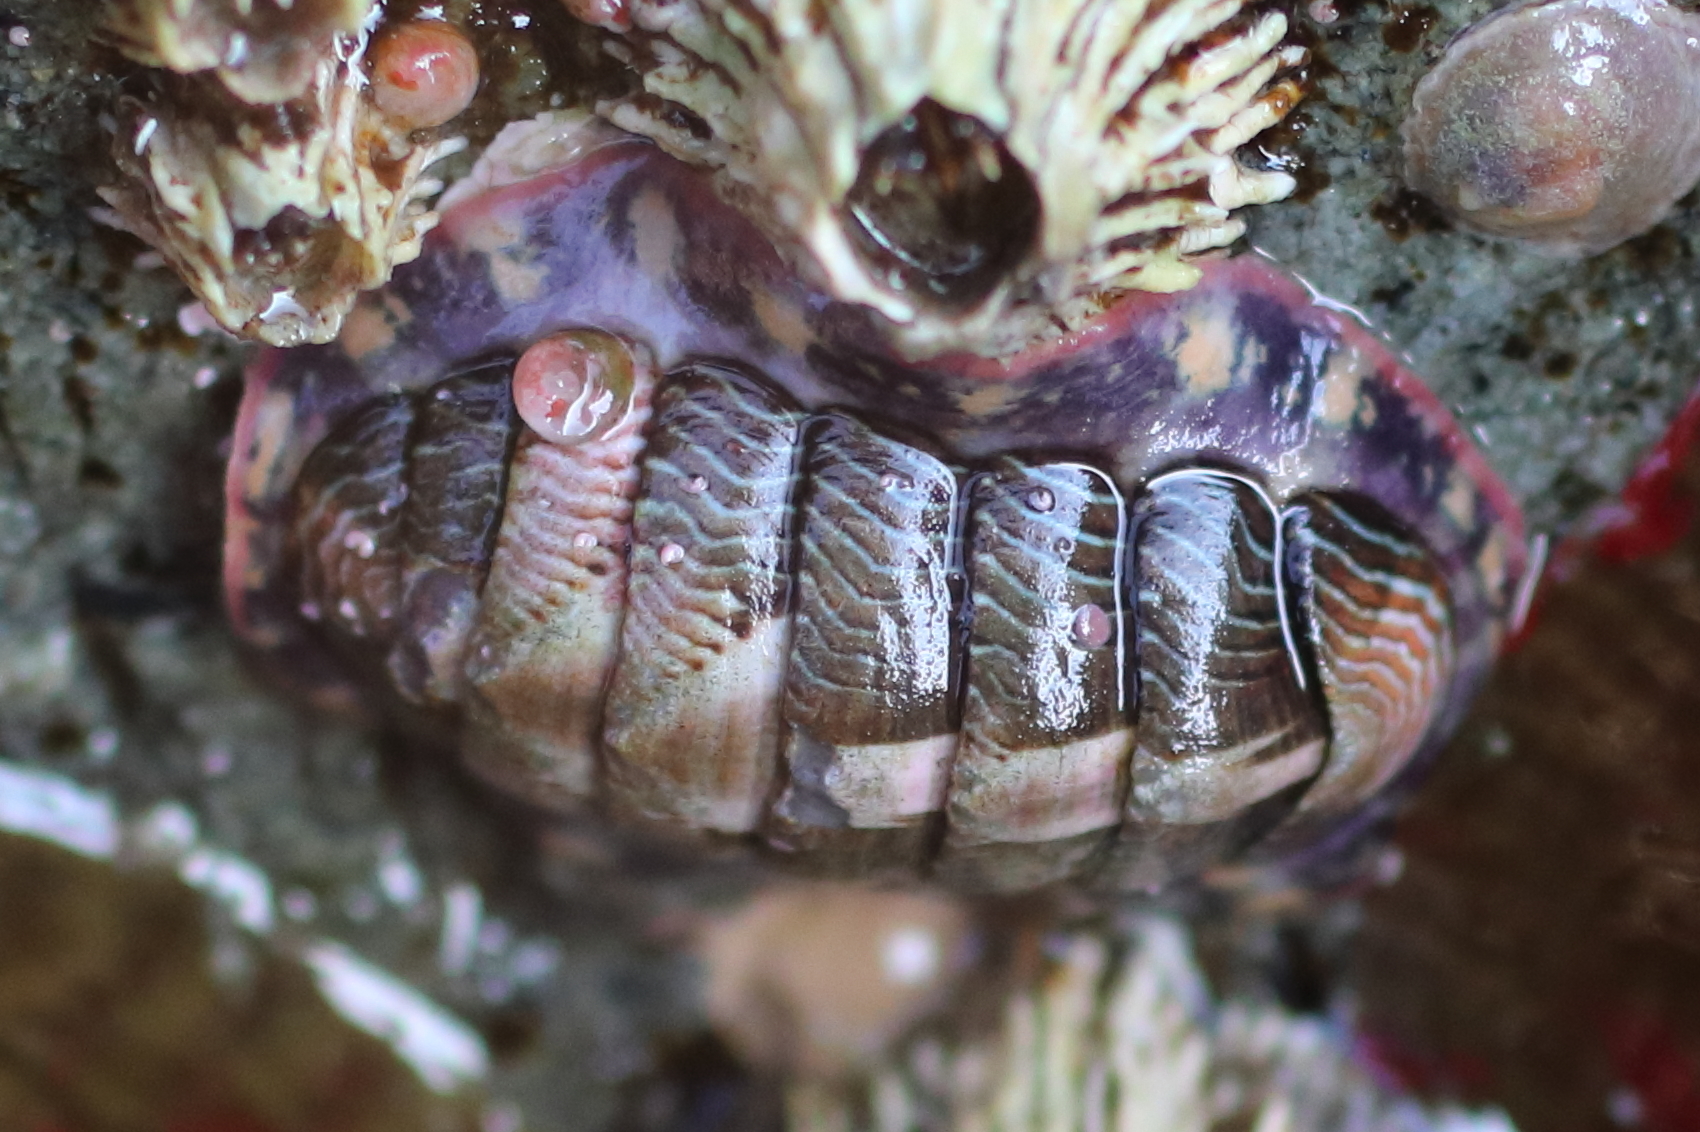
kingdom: Animalia
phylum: Mollusca
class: Polyplacophora
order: Chitonida
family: Tonicellidae
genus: Tonicella
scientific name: Tonicella lineata
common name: Lined chiton
